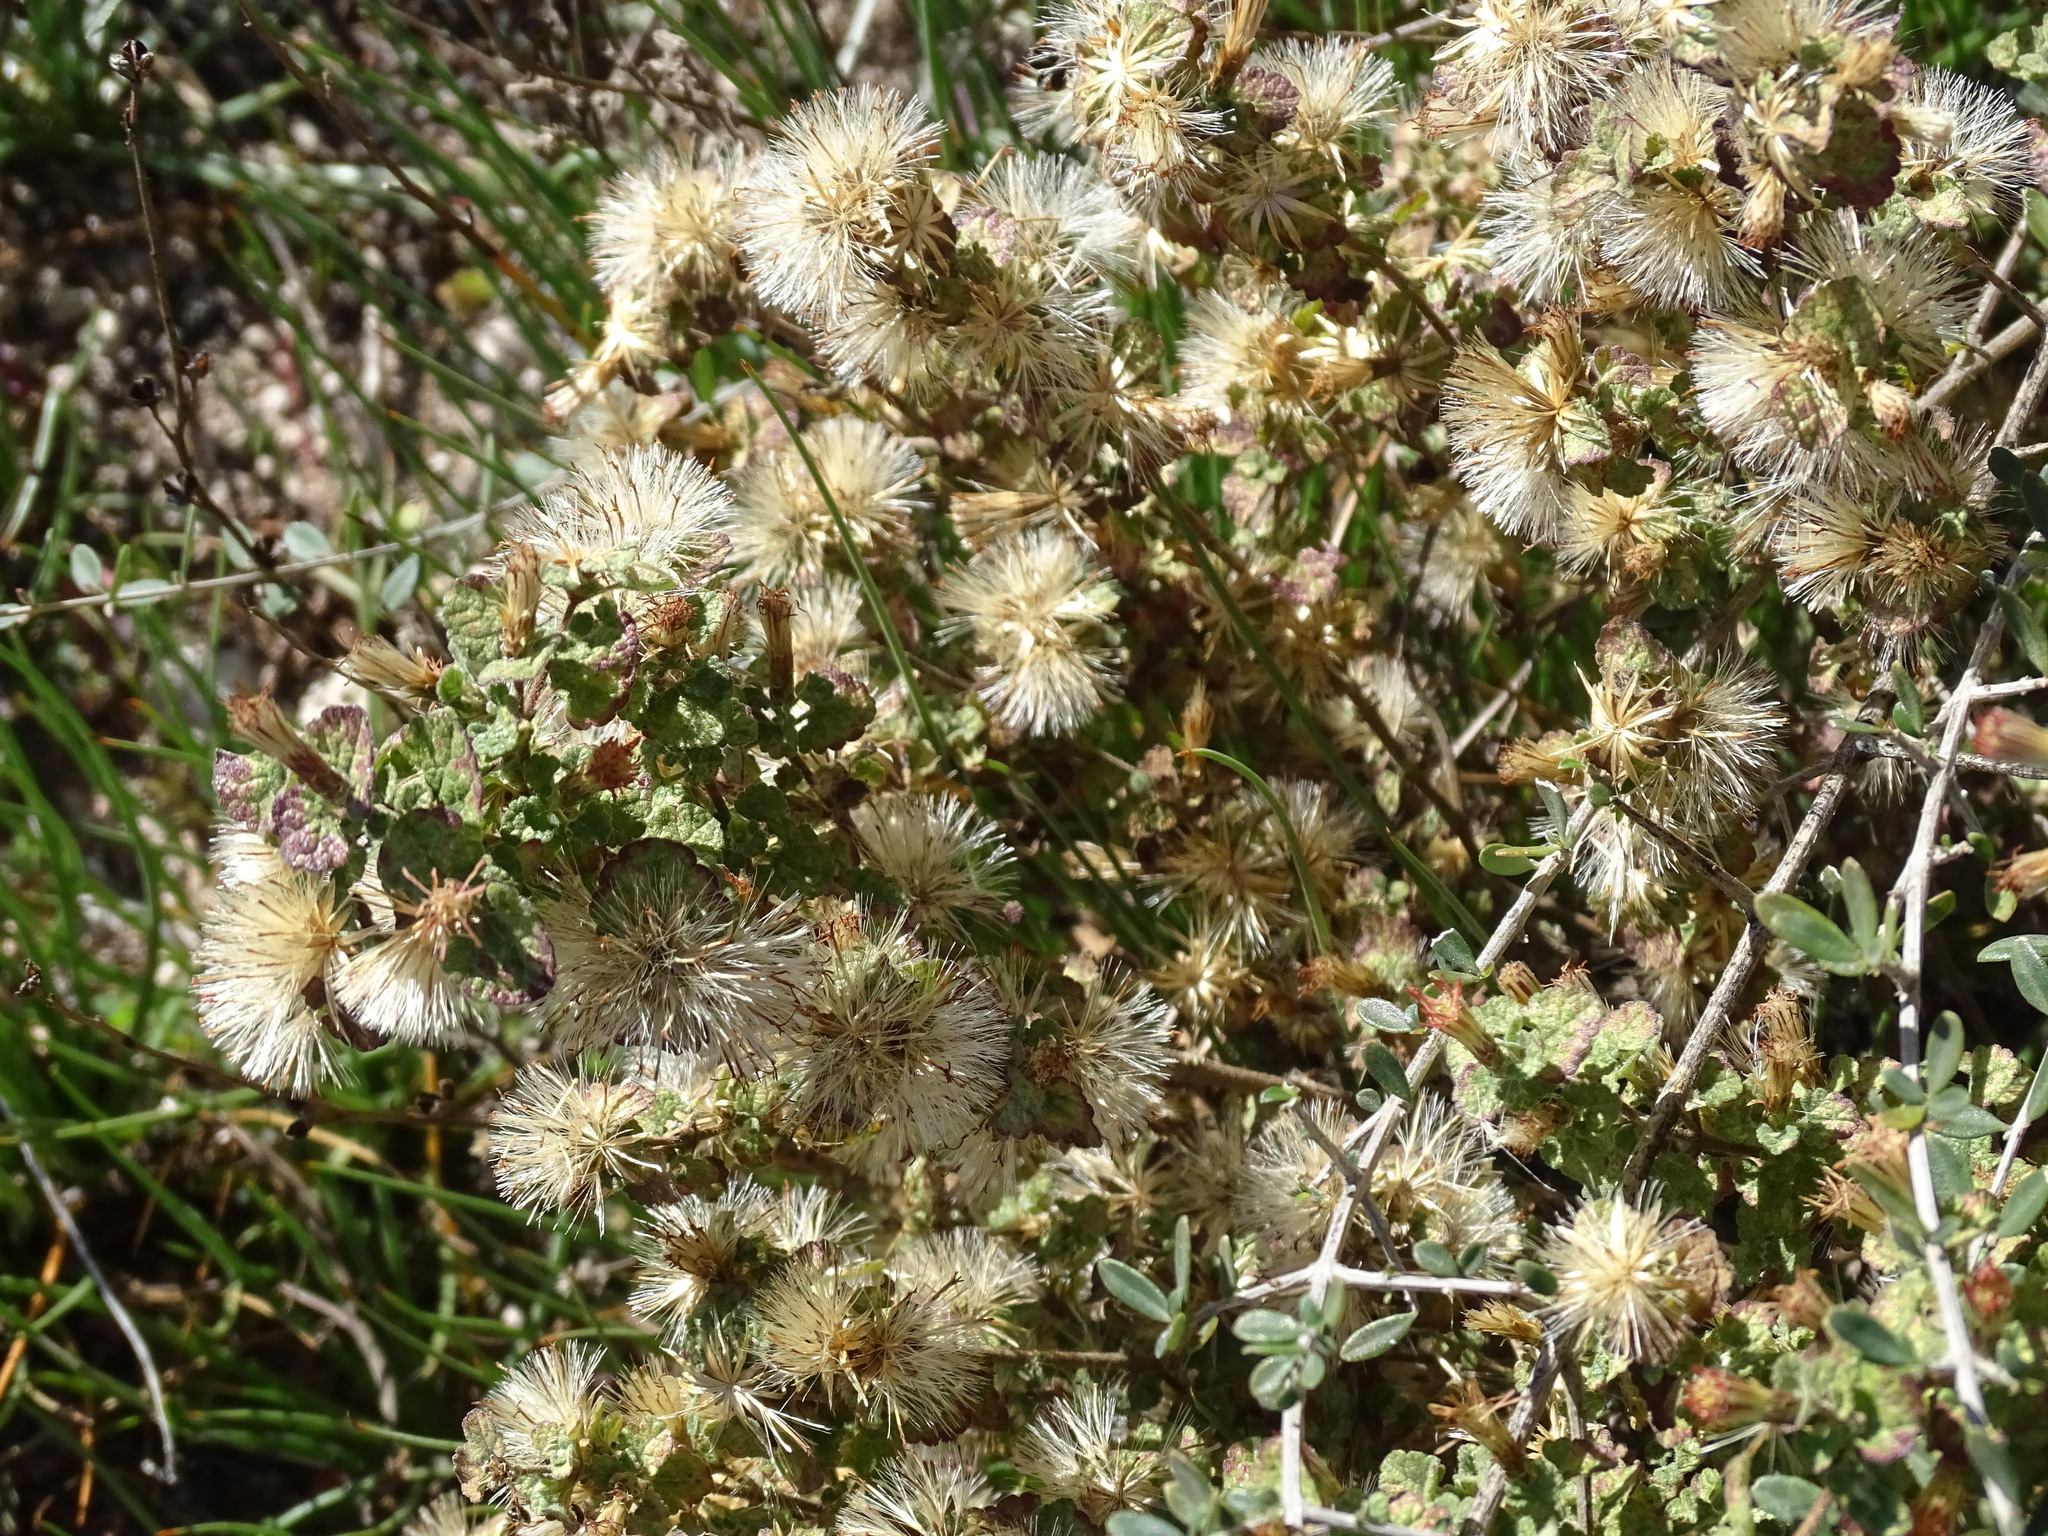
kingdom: Plantae
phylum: Tracheophyta
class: Magnoliopsida
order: Asterales
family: Asteraceae
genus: Brickellia
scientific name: Brickellia veronicifolia
